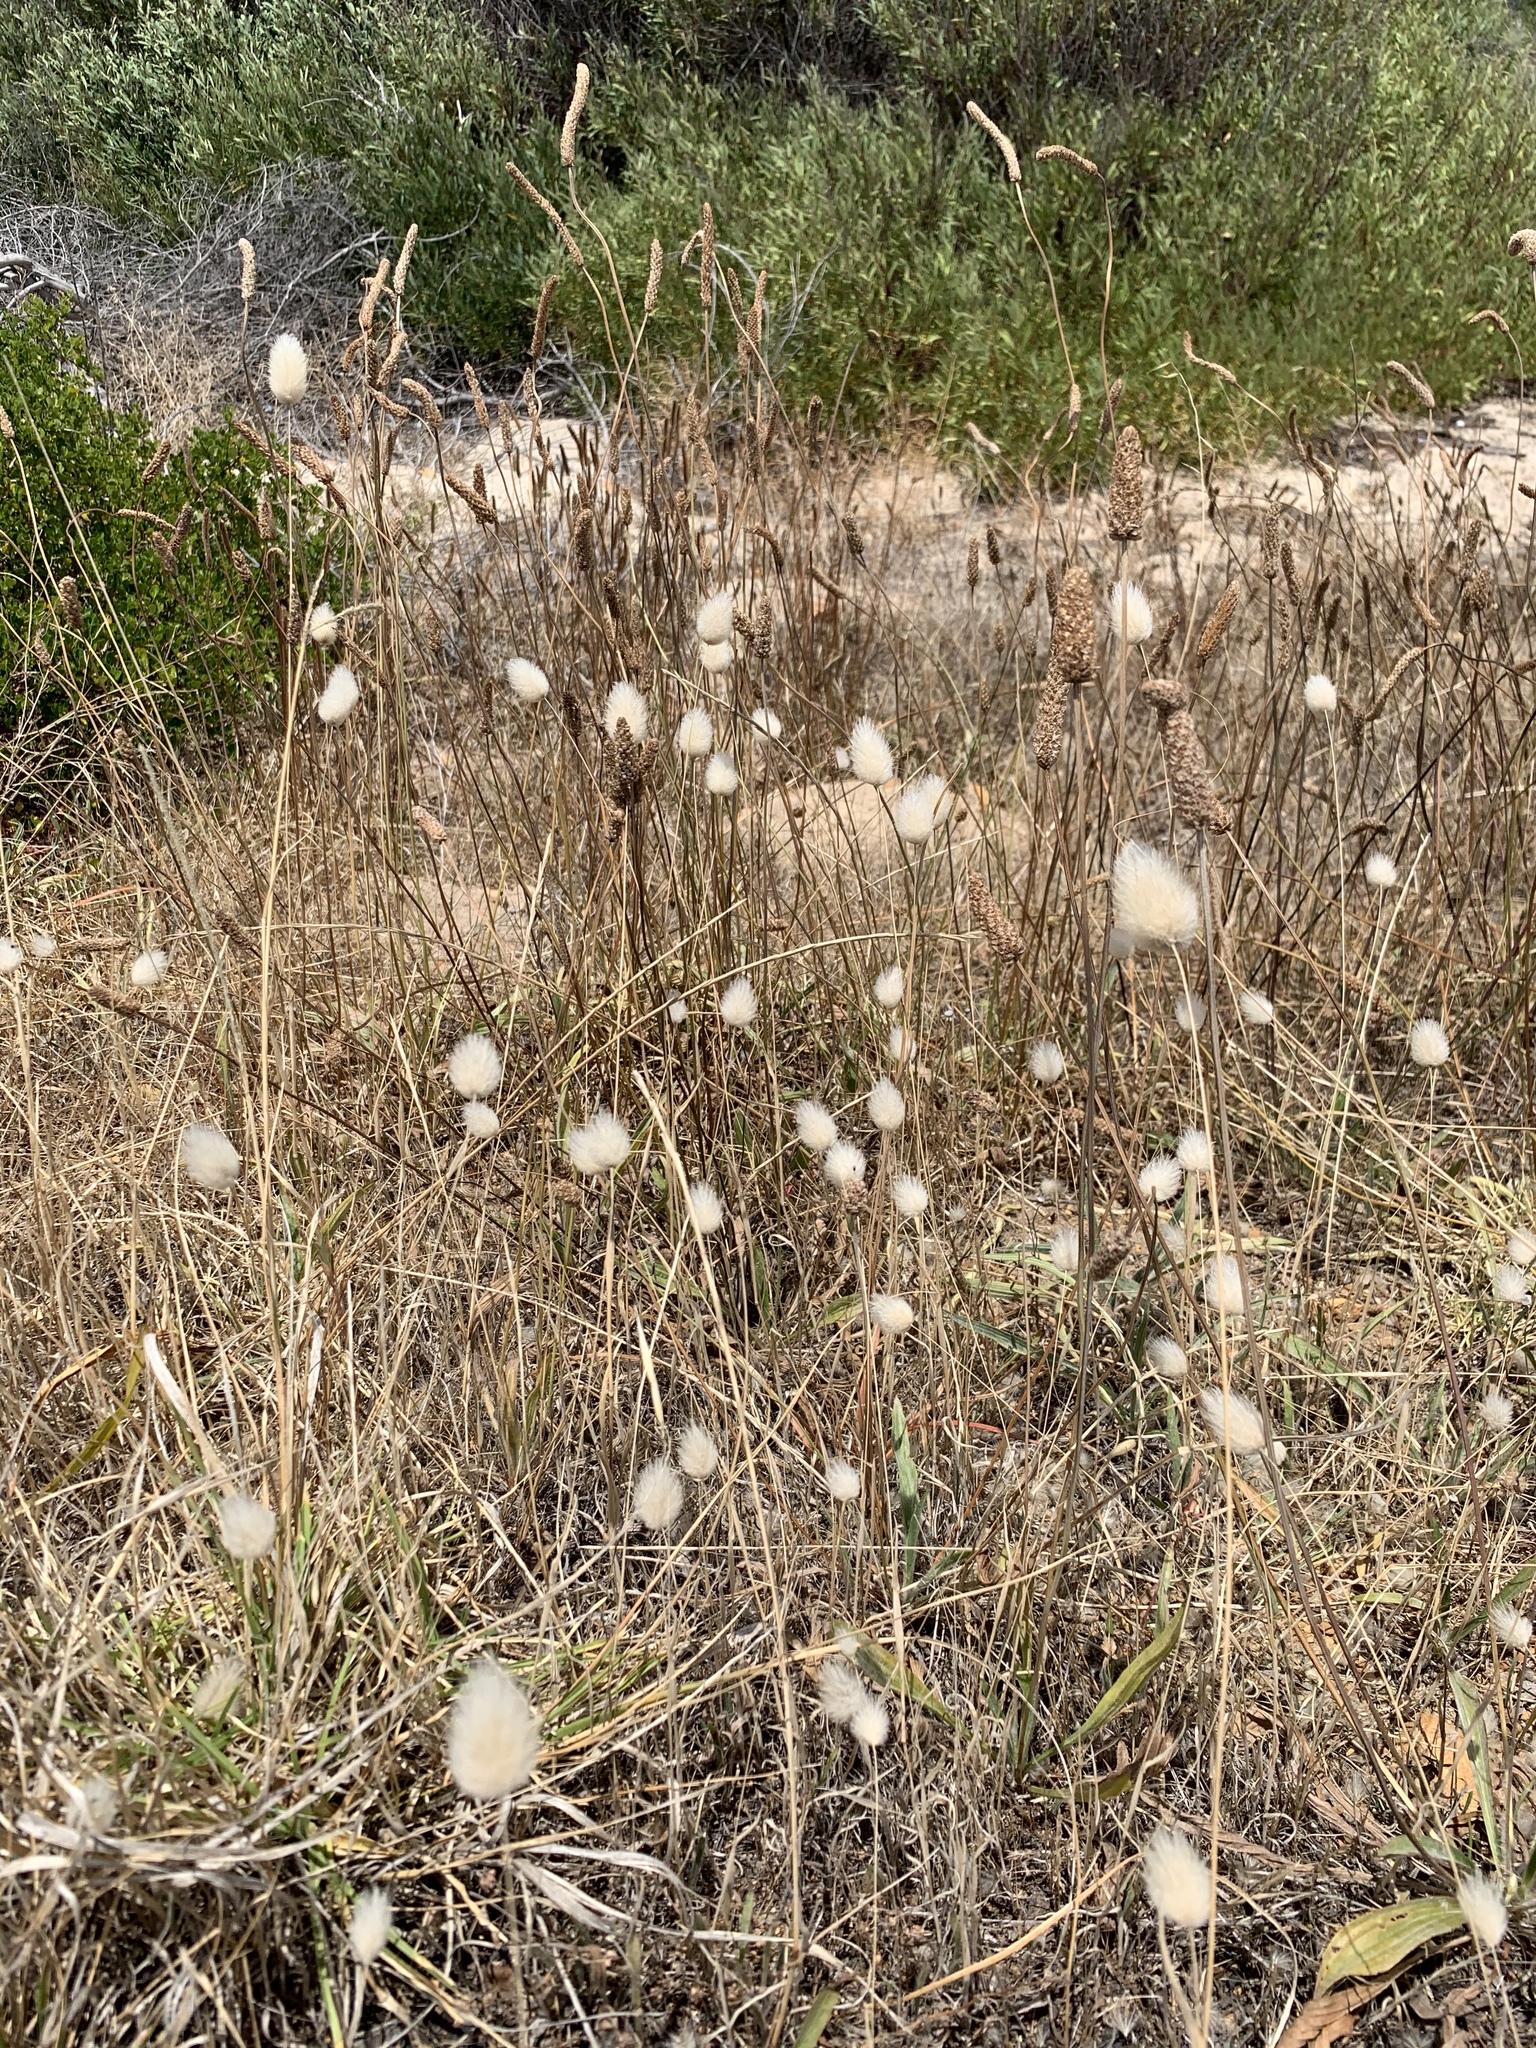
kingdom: Plantae
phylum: Tracheophyta
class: Liliopsida
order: Poales
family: Poaceae
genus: Lagurus
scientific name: Lagurus ovatus
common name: Hare's-tail
